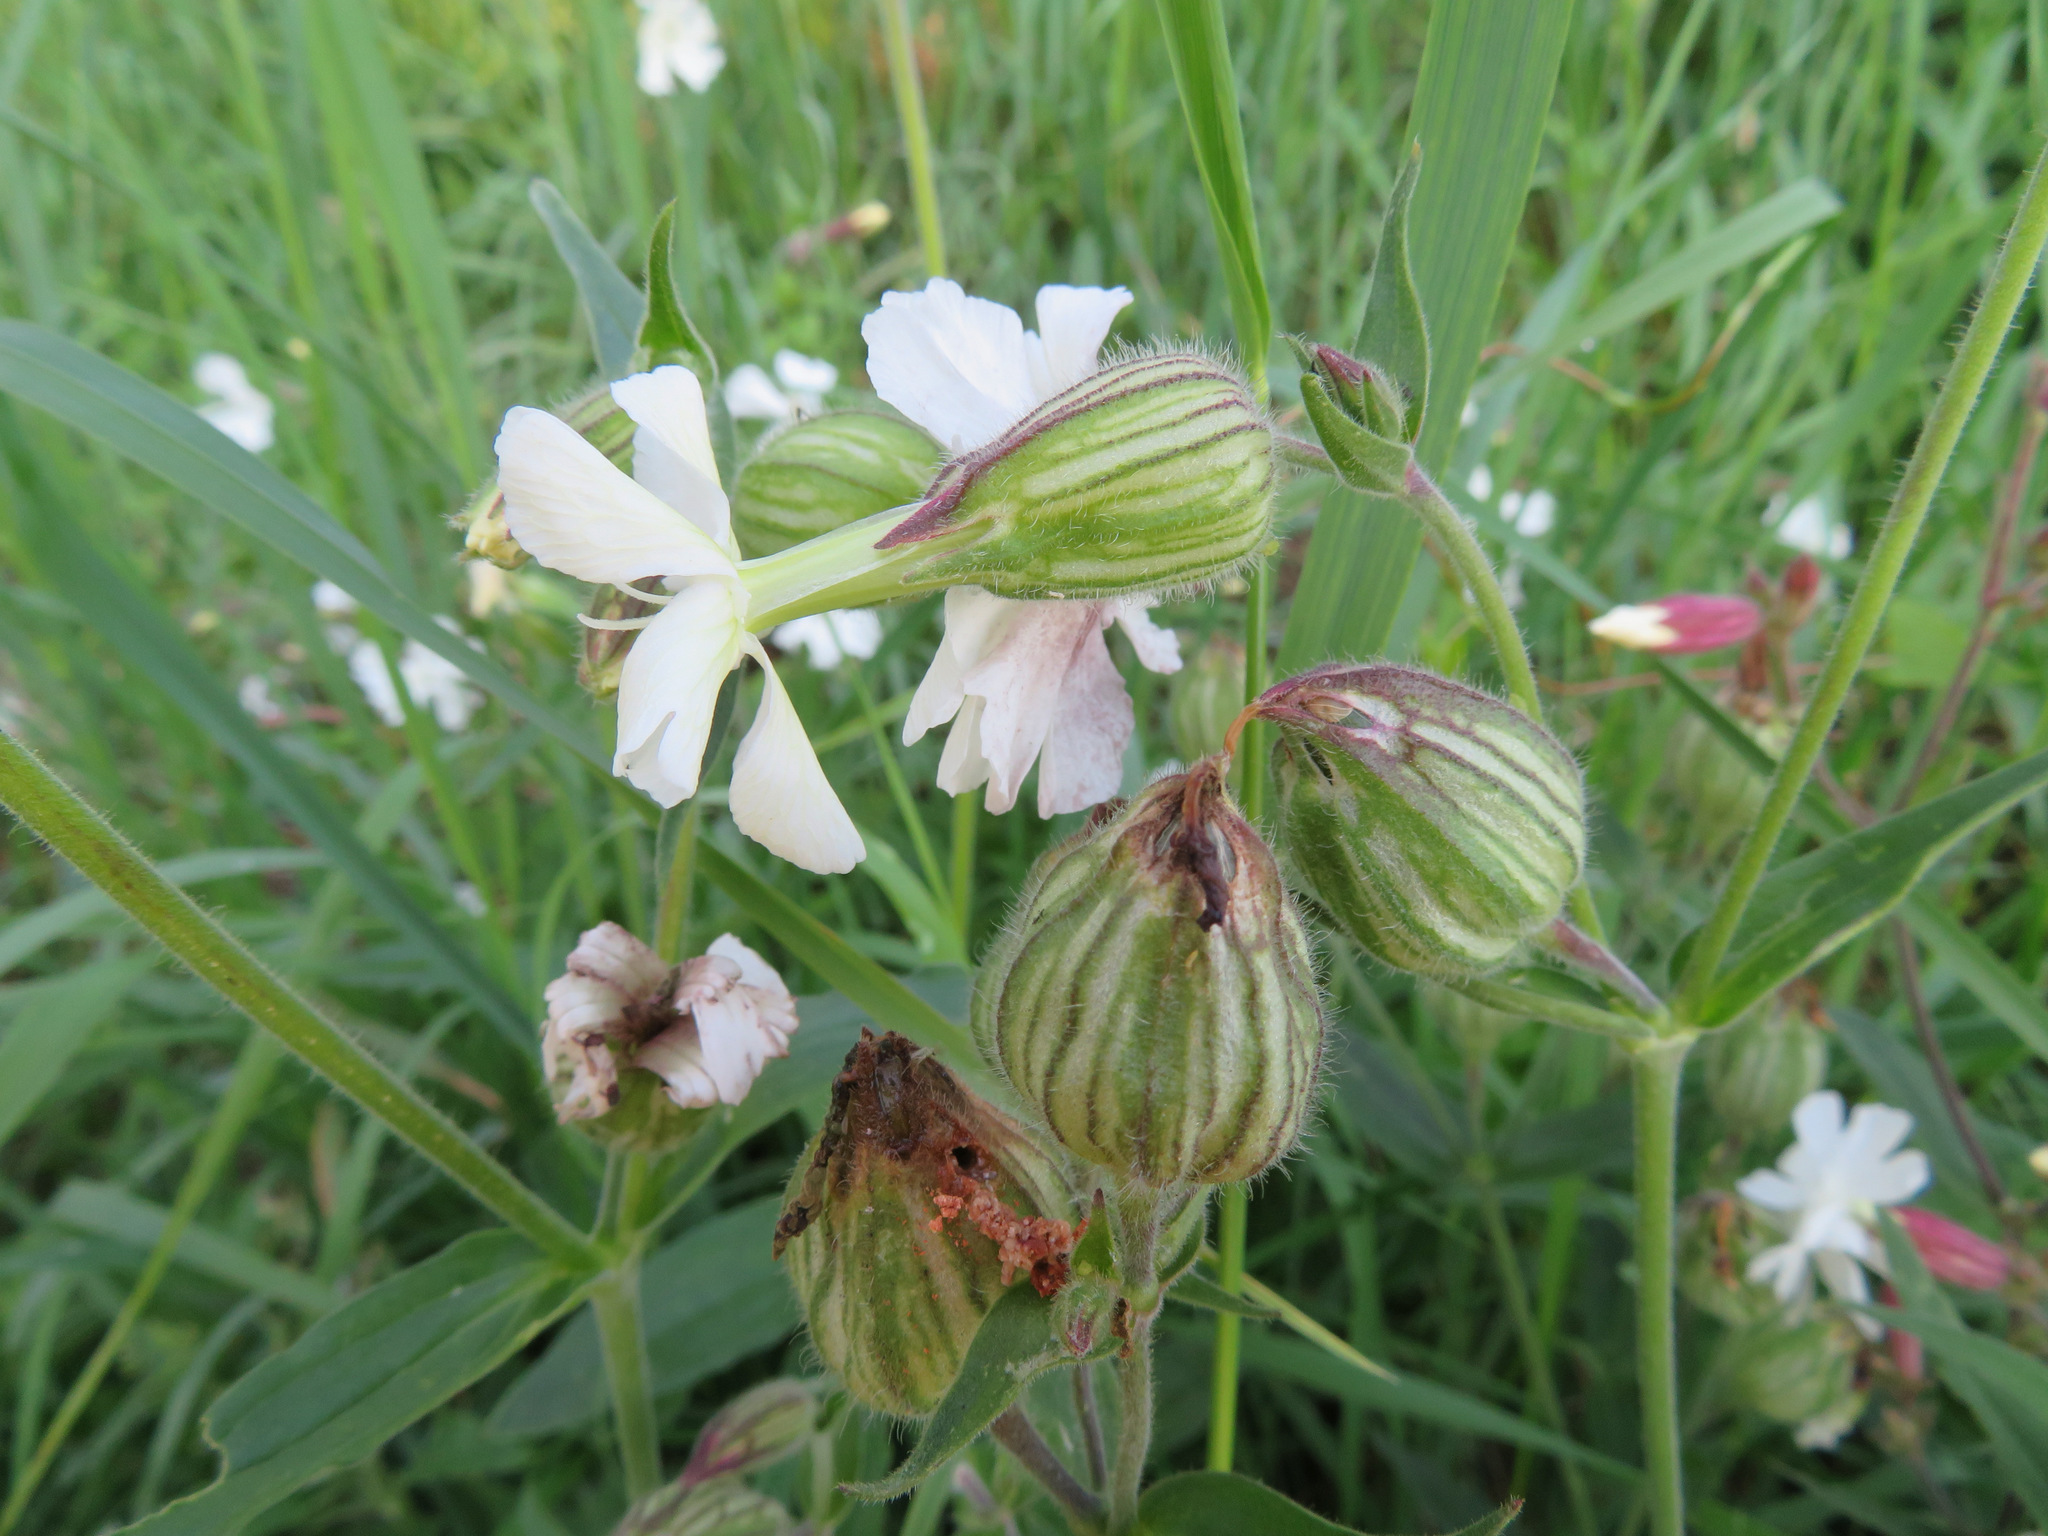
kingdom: Plantae
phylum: Tracheophyta
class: Magnoliopsida
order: Caryophyllales
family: Caryophyllaceae
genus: Silene
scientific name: Silene latifolia
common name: White campion
